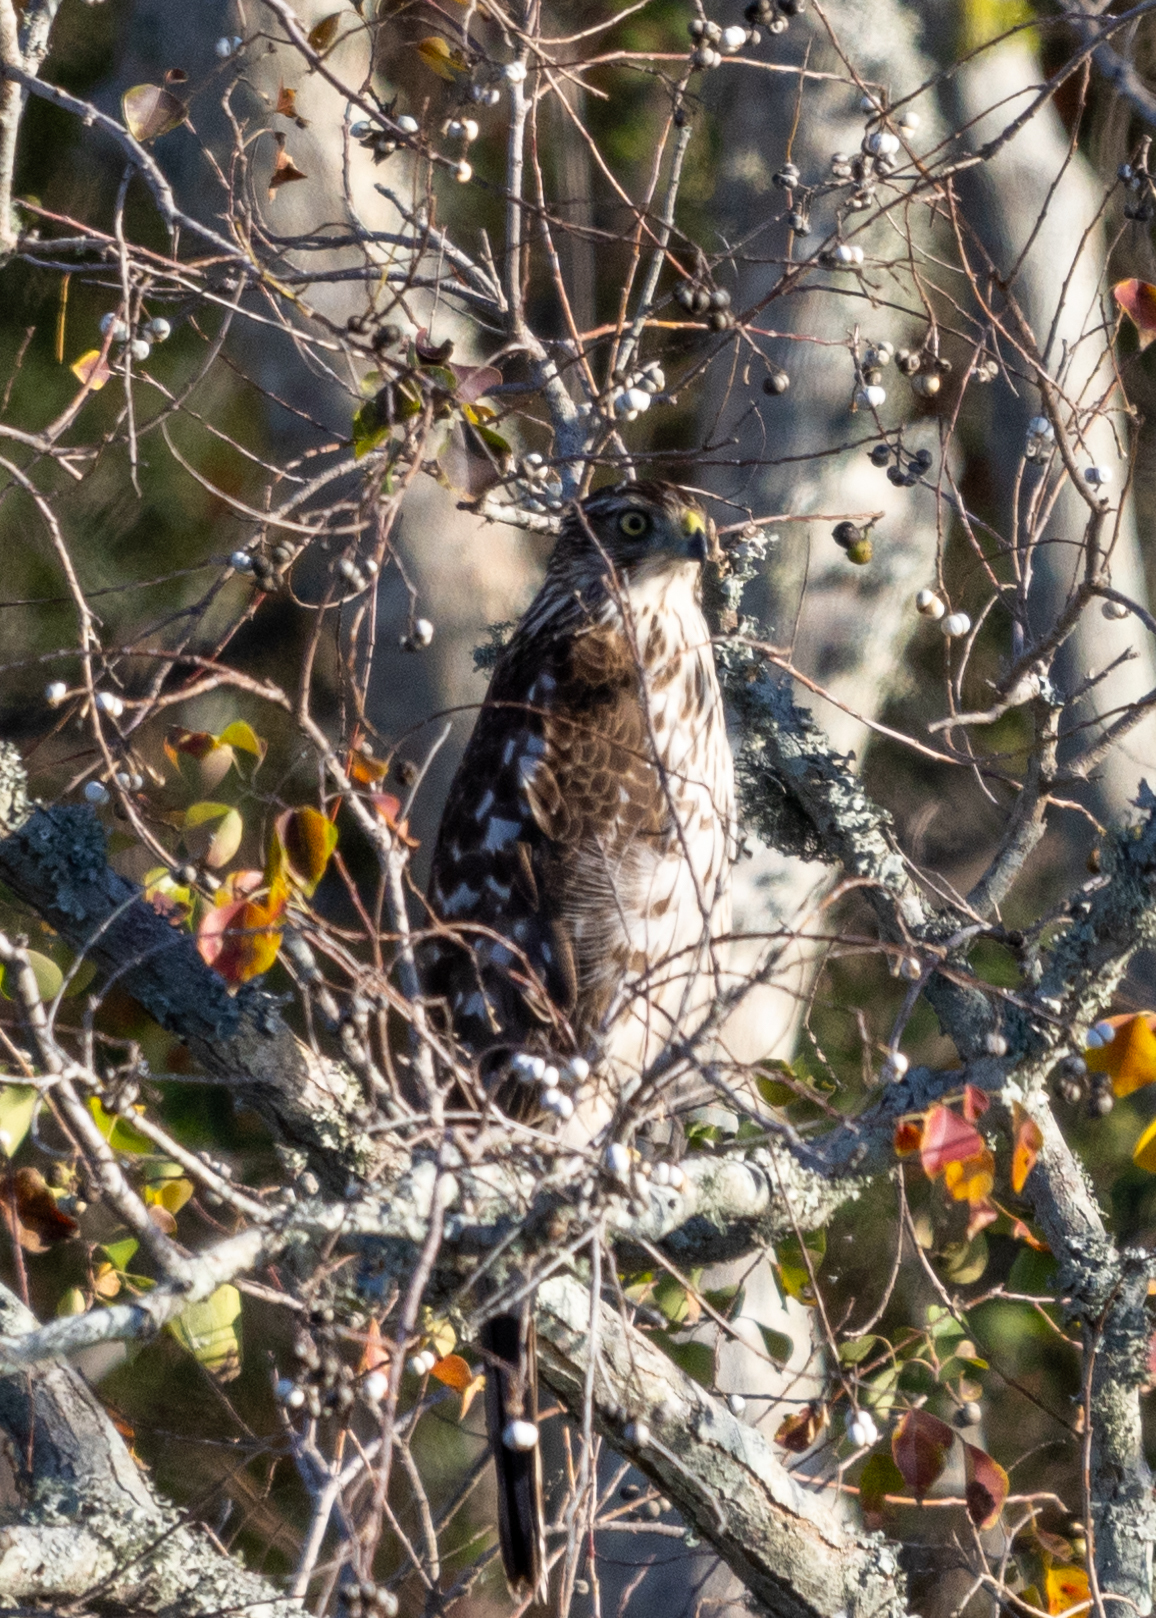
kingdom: Animalia
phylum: Chordata
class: Aves
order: Accipitriformes
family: Accipitridae
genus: Accipiter
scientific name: Accipiter cooperii
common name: Cooper's hawk
